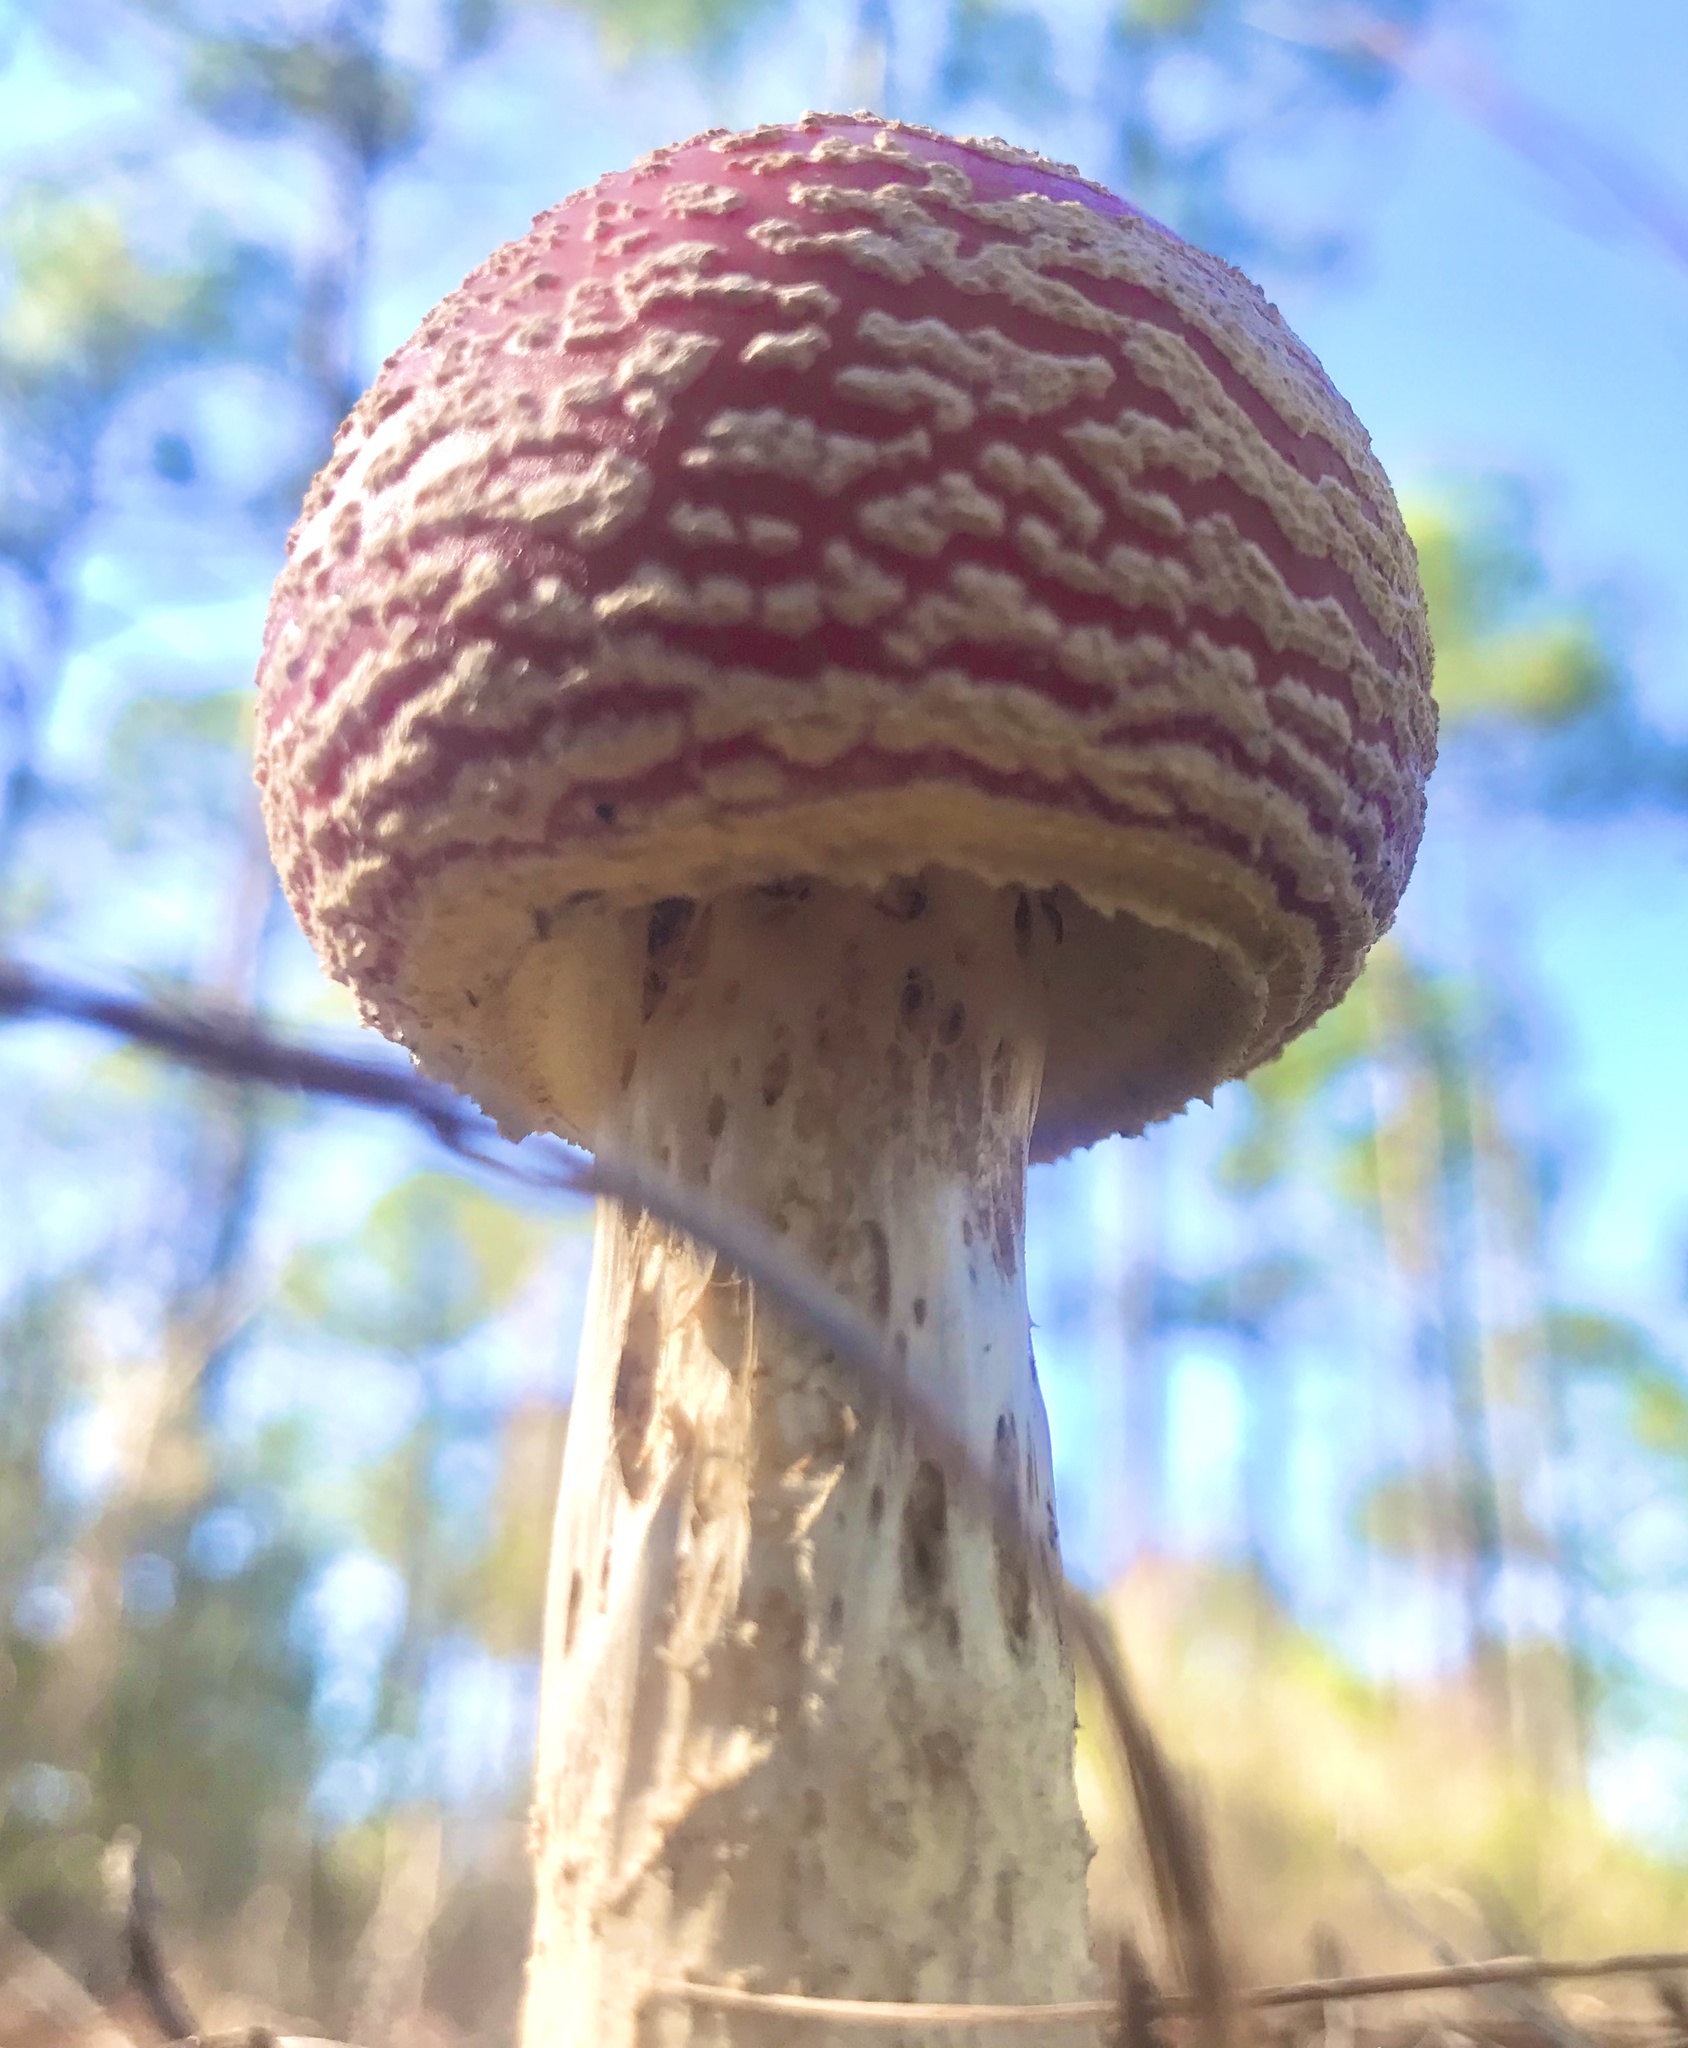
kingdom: Fungi
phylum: Basidiomycota
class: Agaricomycetes
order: Agaricales
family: Amanitaceae
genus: Amanita
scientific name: Amanita persicina
